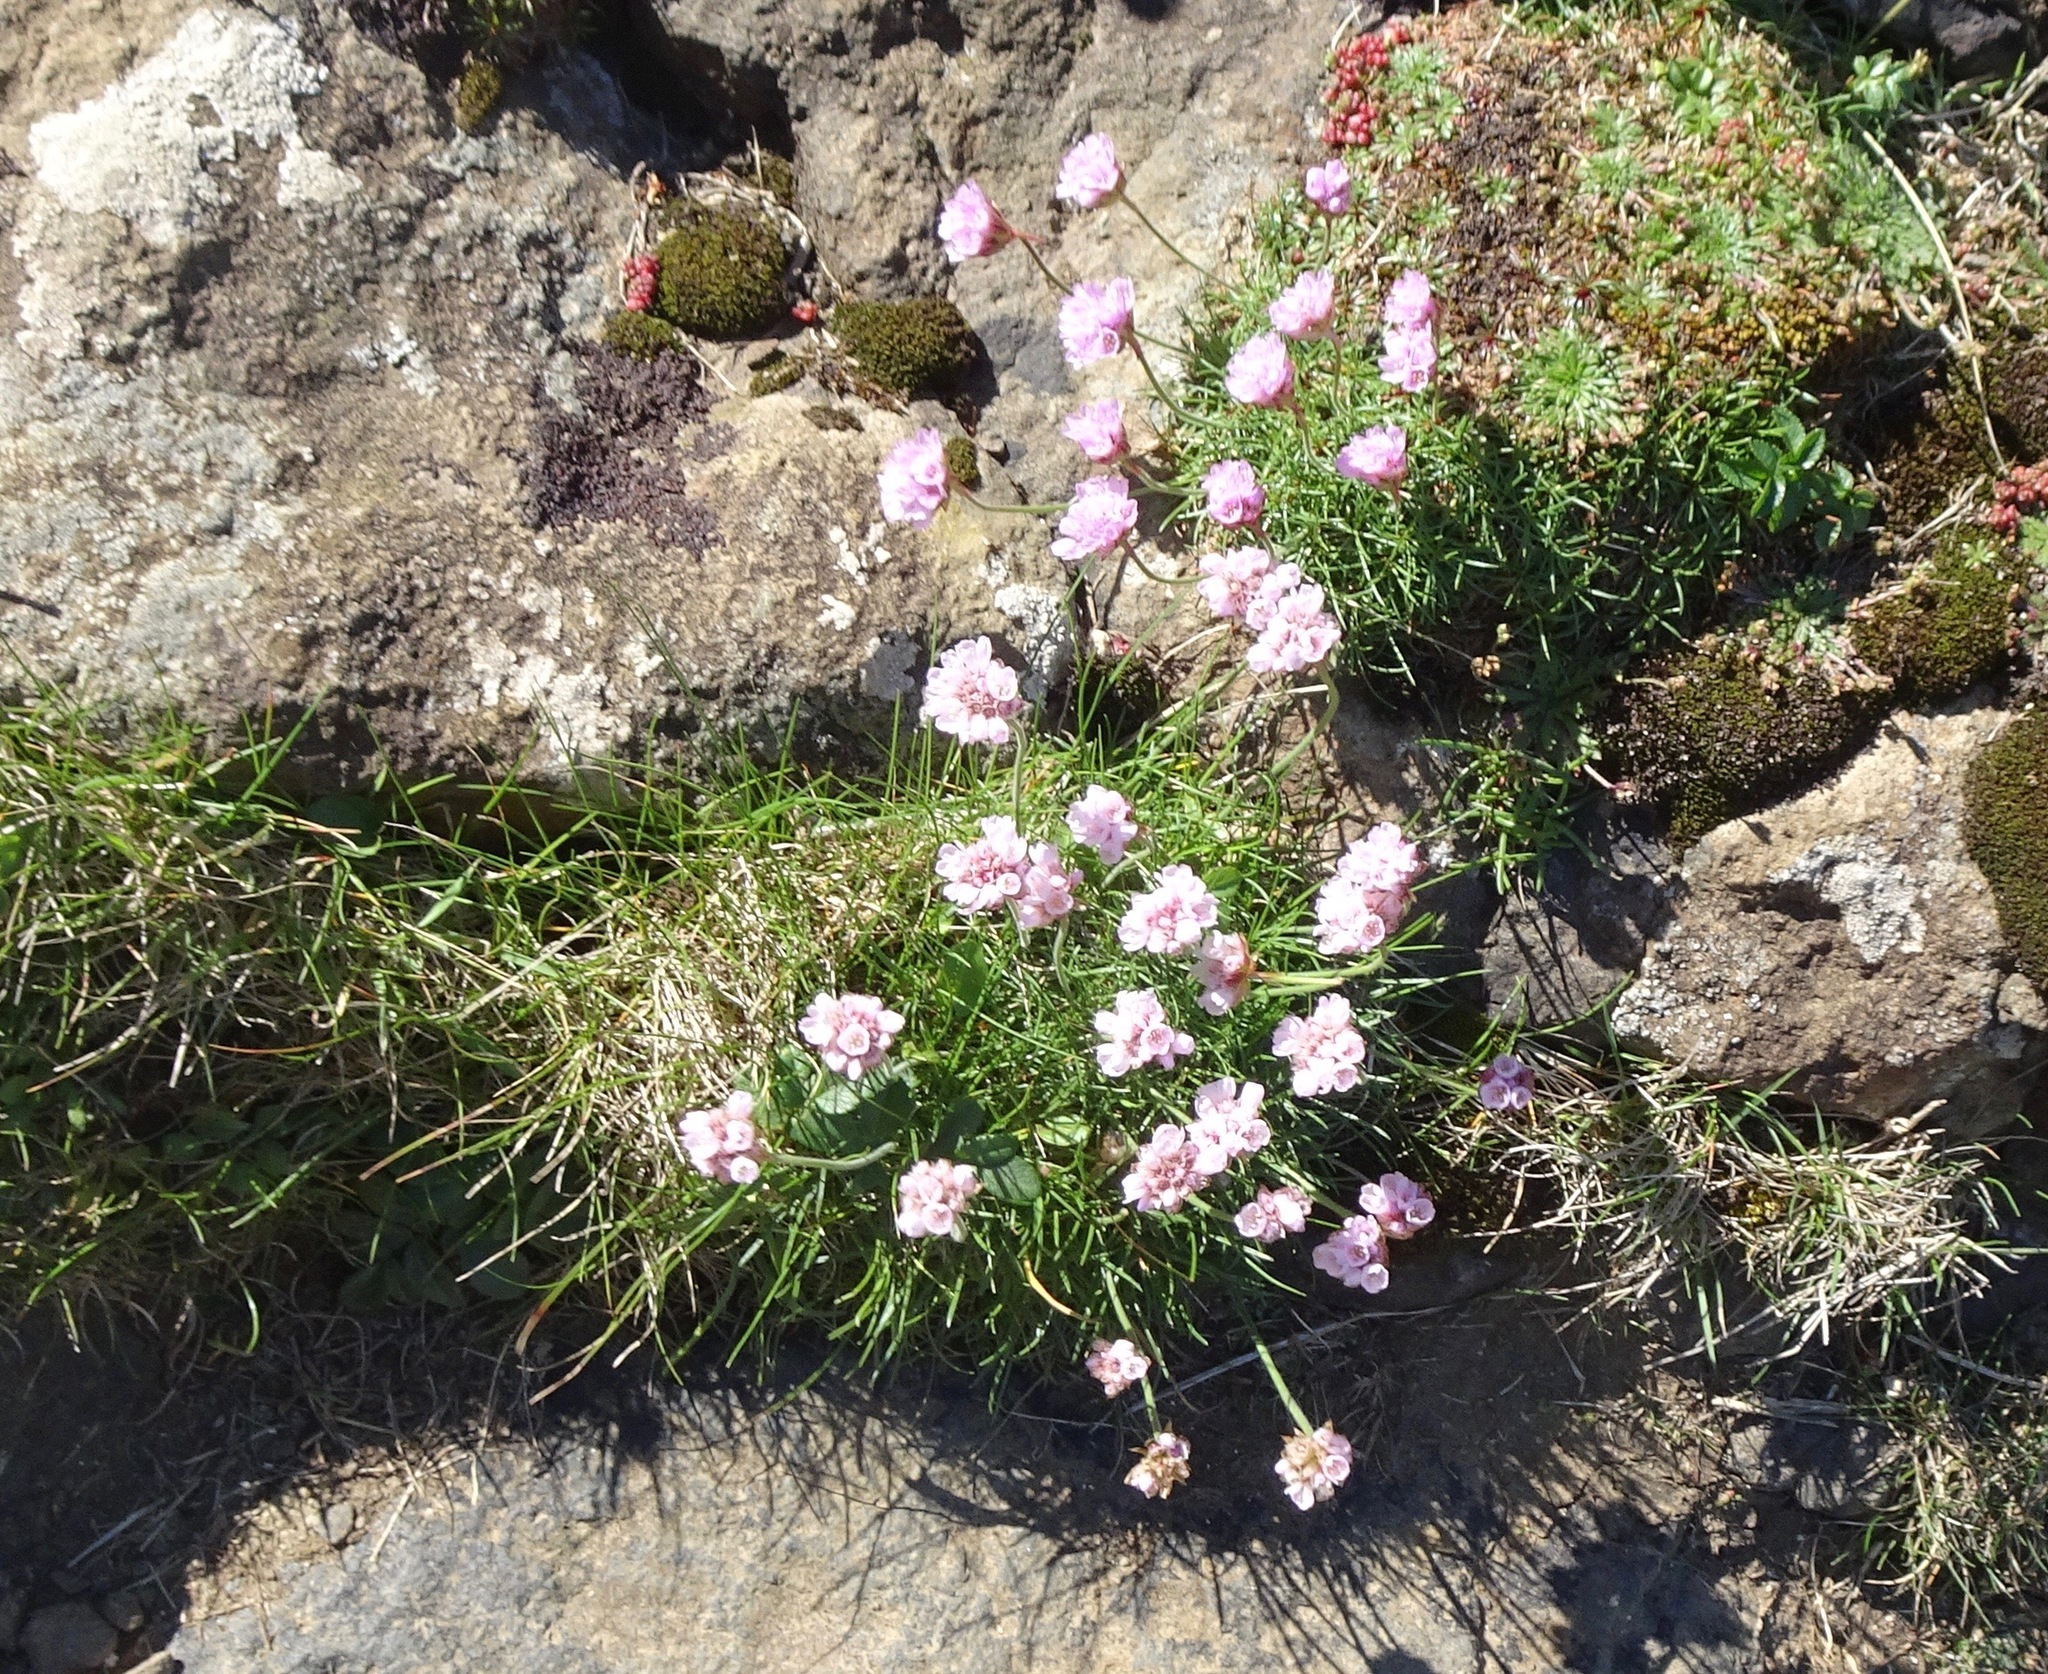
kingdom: Plantae
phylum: Tracheophyta
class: Magnoliopsida
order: Caryophyllales
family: Plumbaginaceae
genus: Armeria
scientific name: Armeria maritima
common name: Thrift
